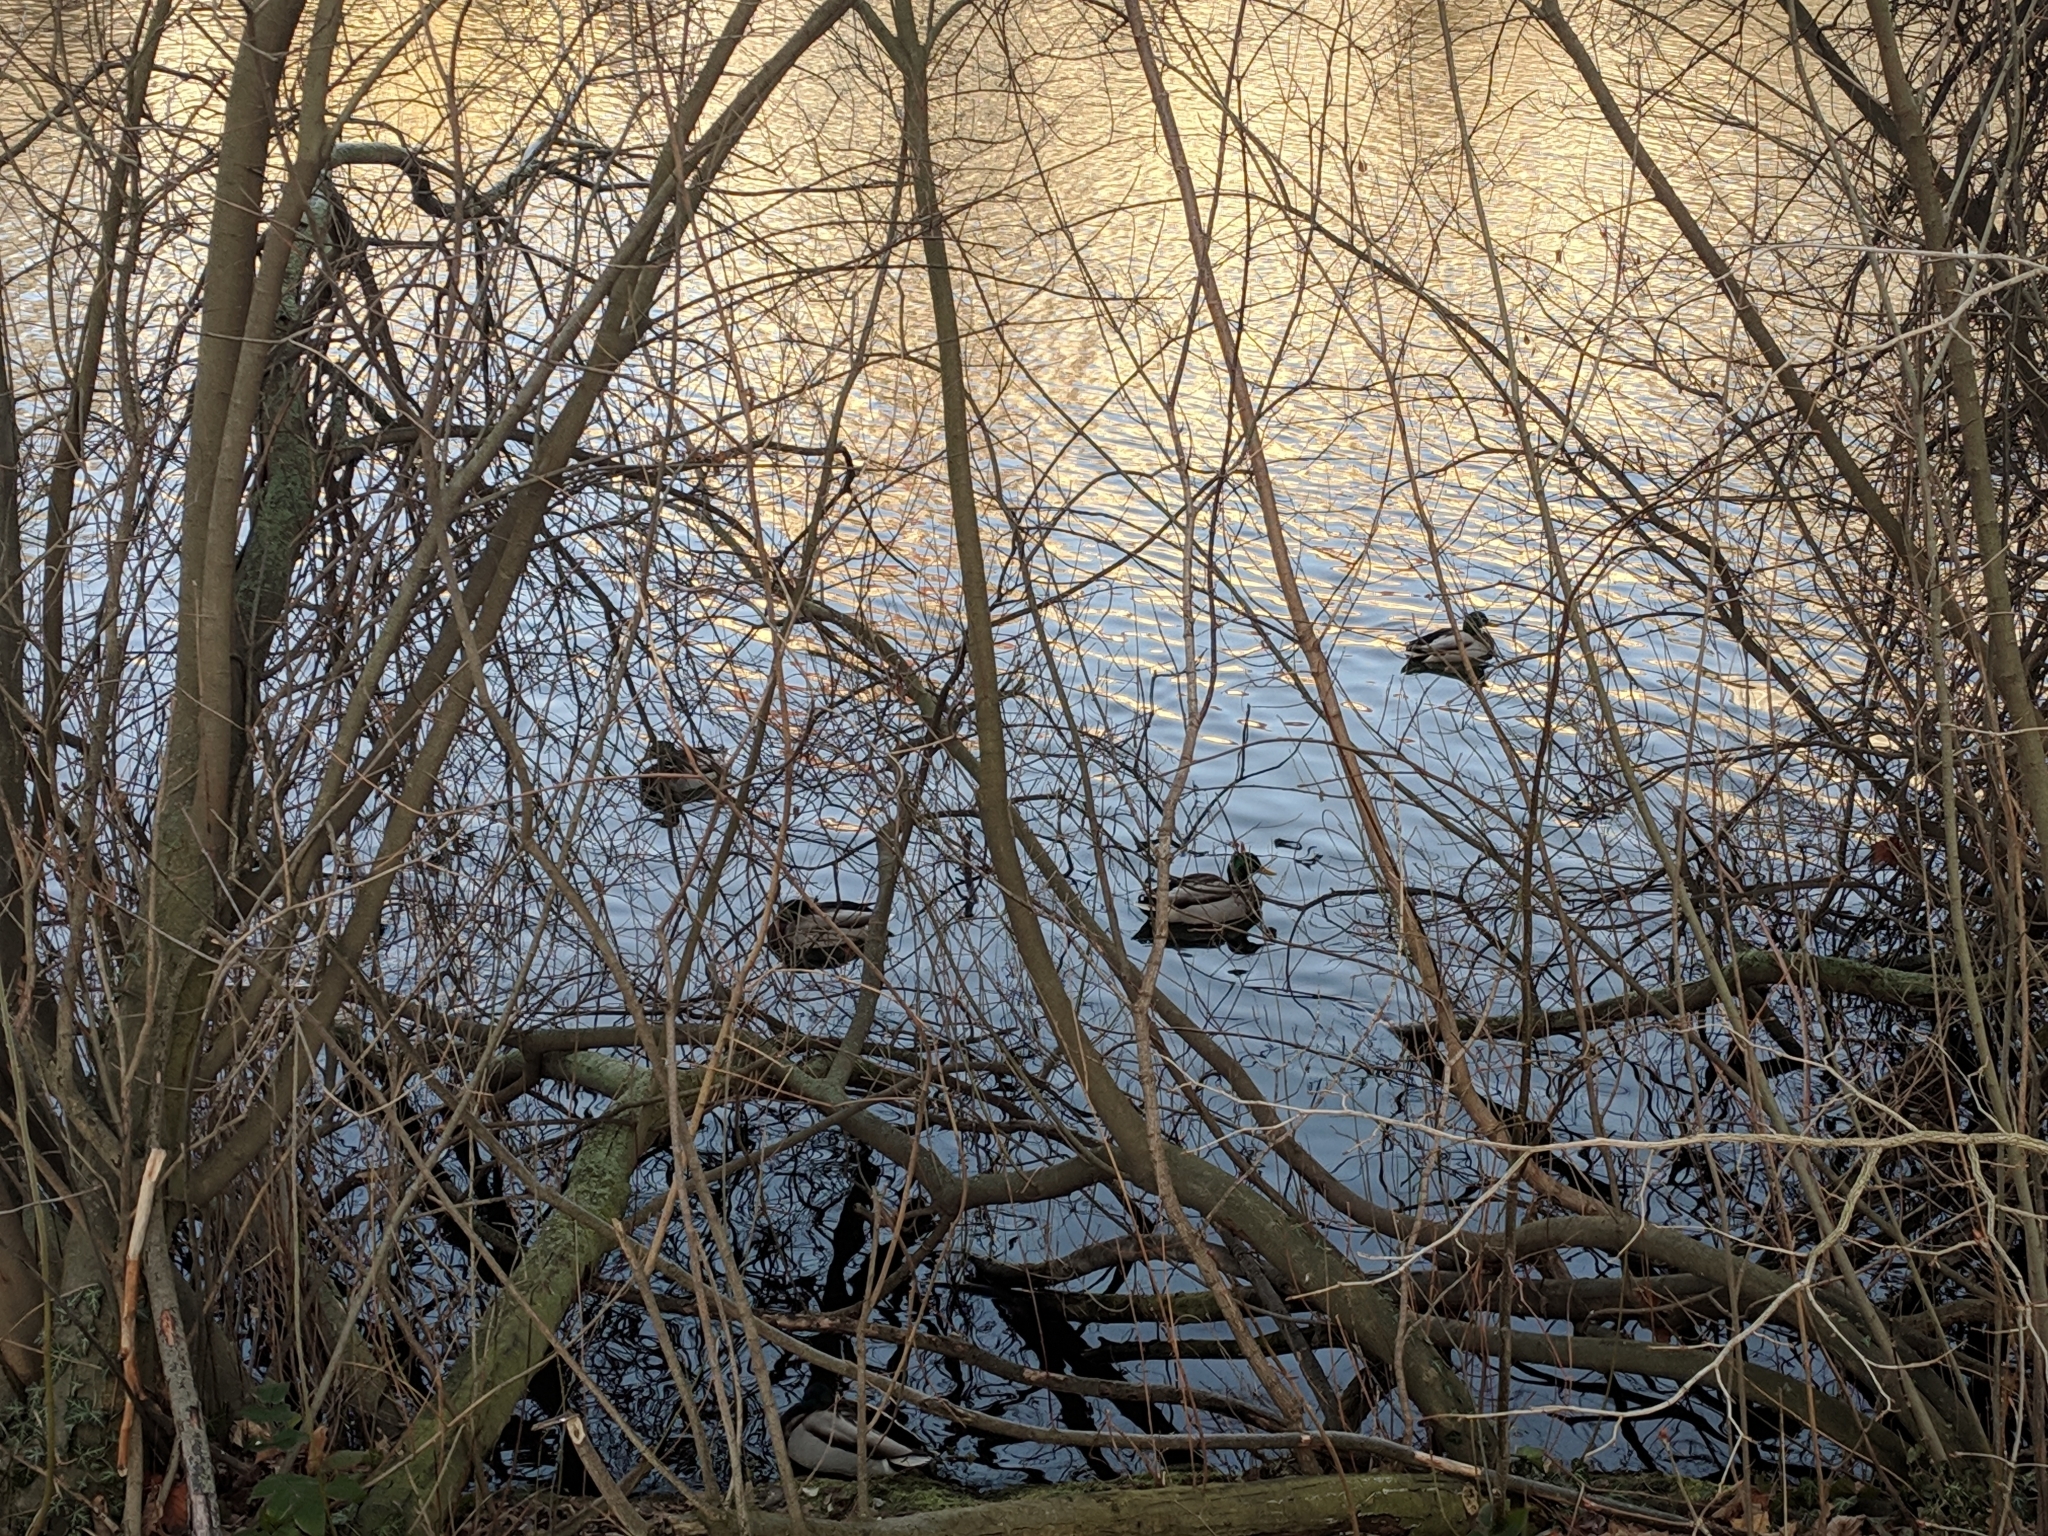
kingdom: Animalia
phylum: Chordata
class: Aves
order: Anseriformes
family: Anatidae
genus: Anas
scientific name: Anas platyrhynchos
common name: Mallard
